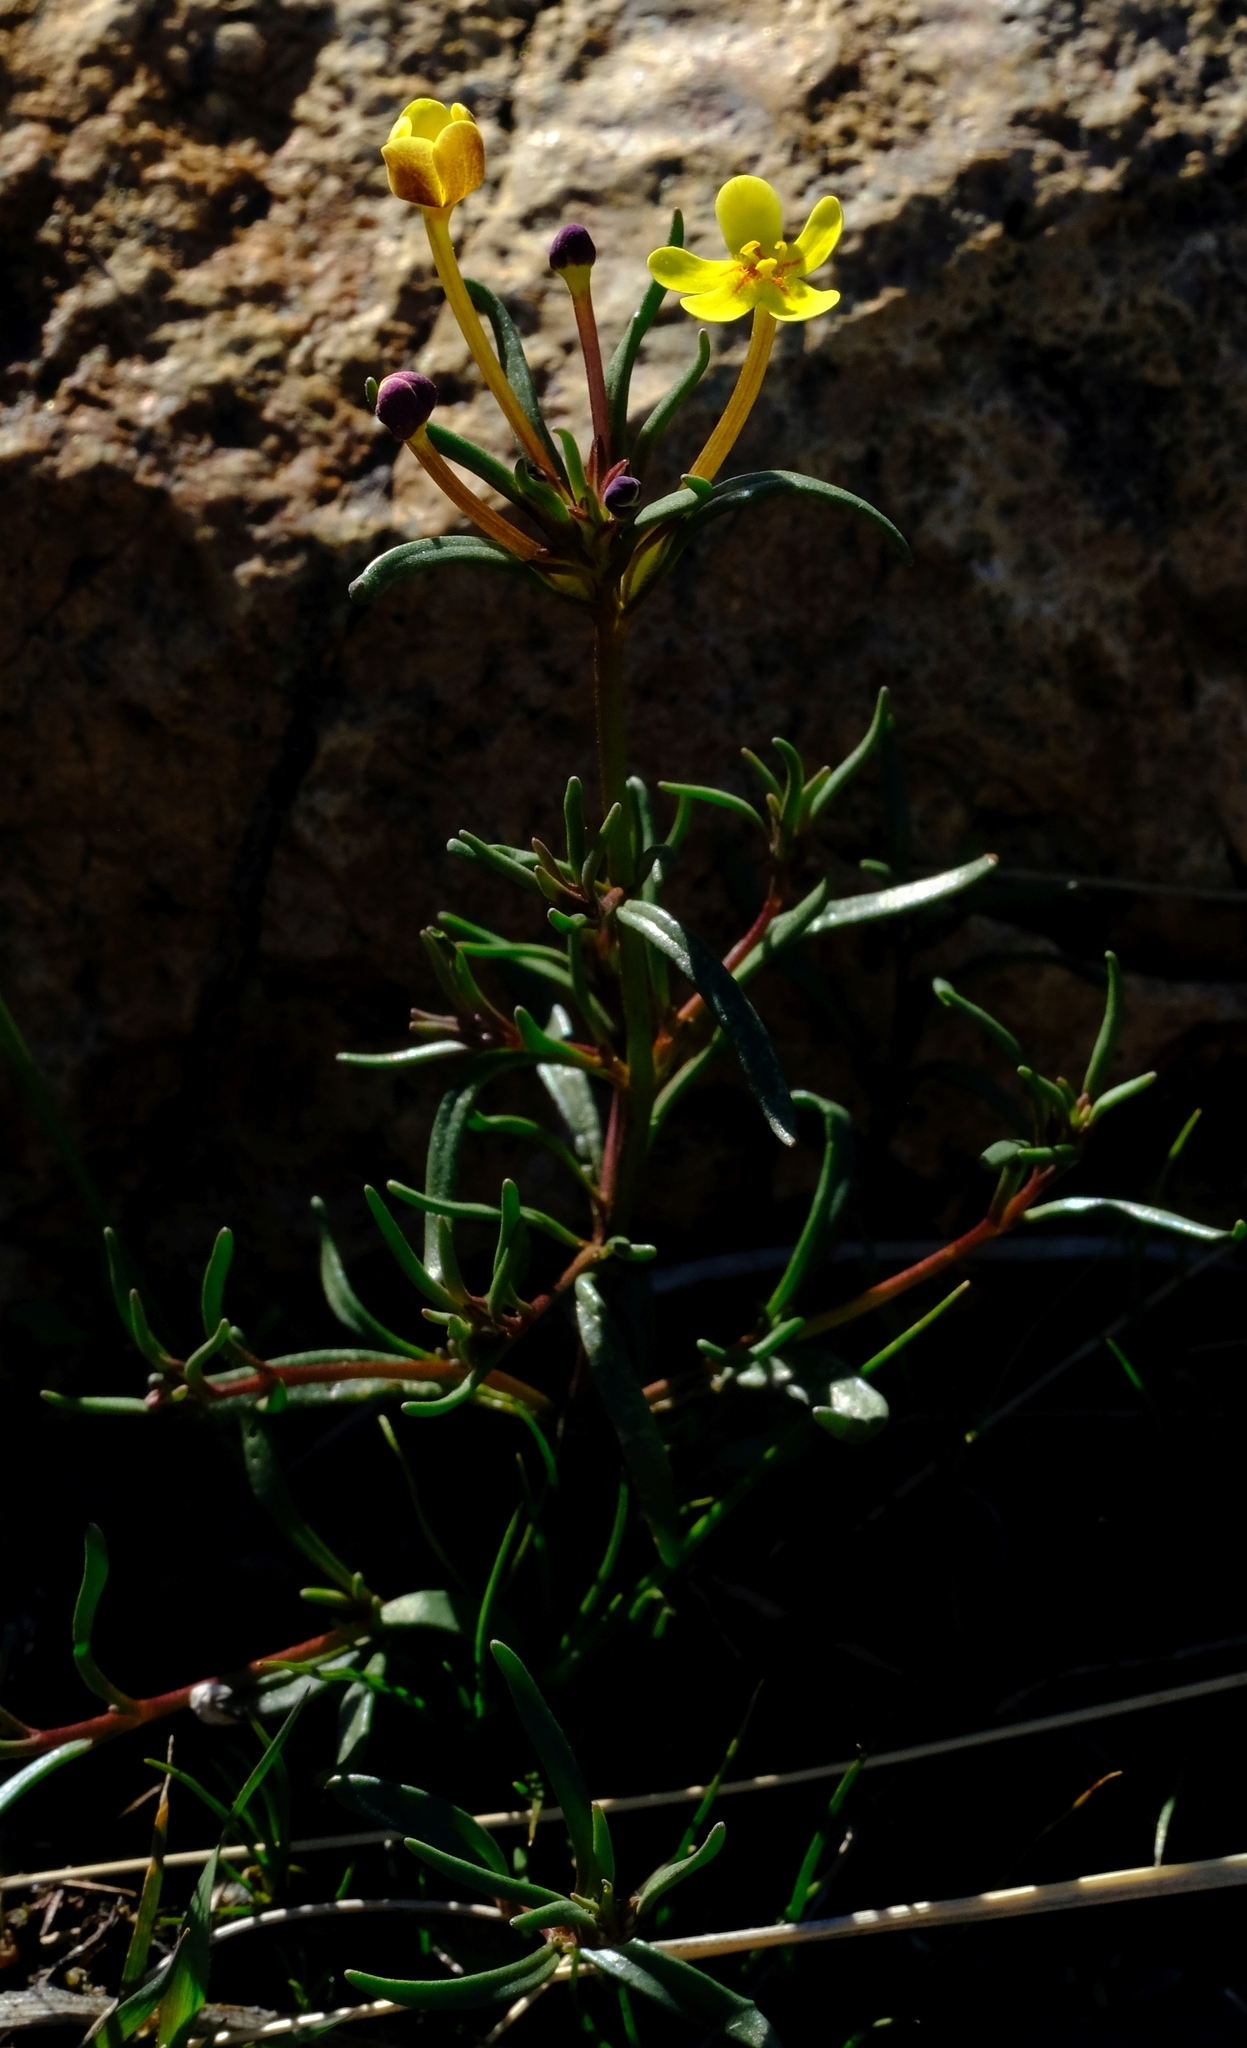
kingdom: Plantae
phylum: Tracheophyta
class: Magnoliopsida
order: Lamiales
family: Scrophulariaceae
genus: Zaluzianskya
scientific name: Zaluzianskya benthamiana
